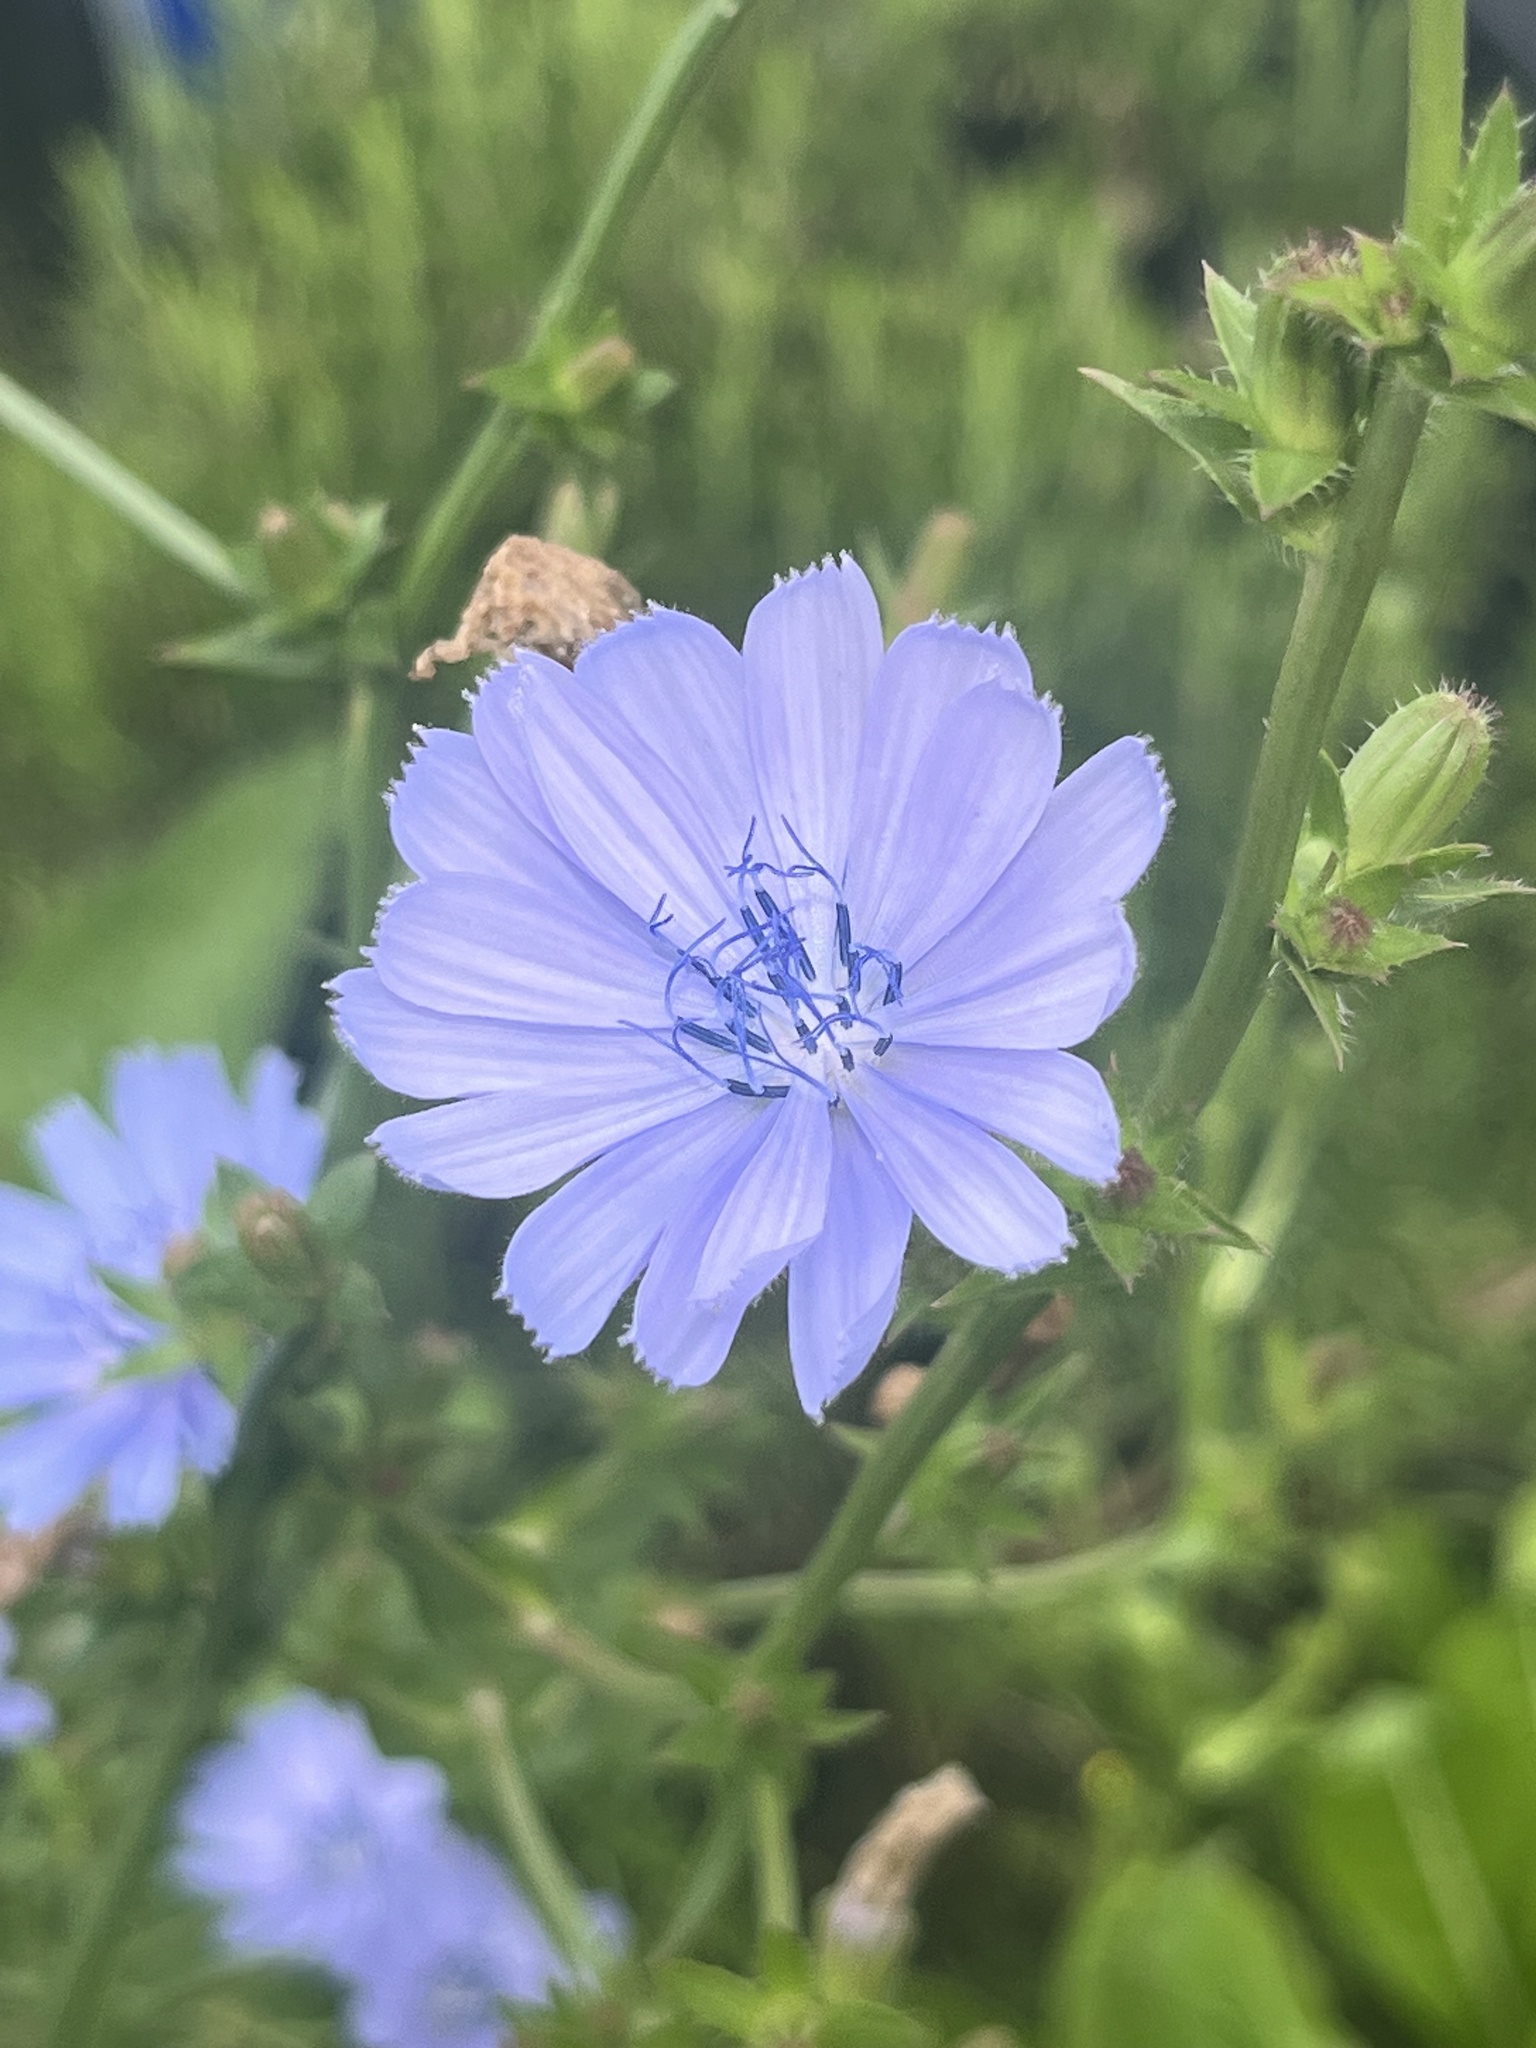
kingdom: Plantae
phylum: Tracheophyta
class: Magnoliopsida
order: Asterales
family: Asteraceae
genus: Cichorium
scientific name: Cichorium intybus
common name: Chicory
